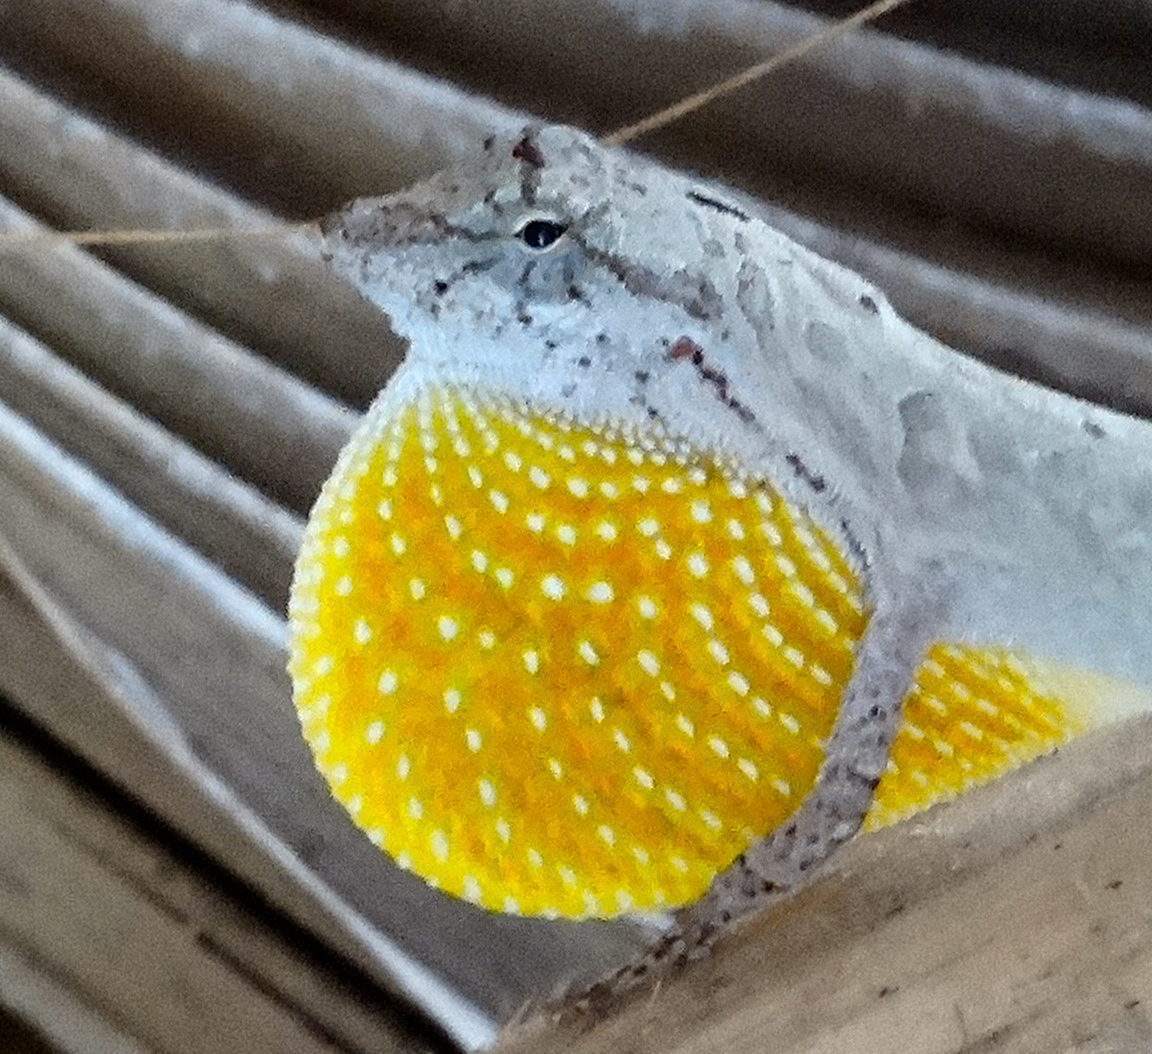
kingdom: Animalia
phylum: Chordata
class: Squamata
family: Dactyloidae
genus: Anolis
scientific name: Anolis nebulosus
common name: Clouded anole
